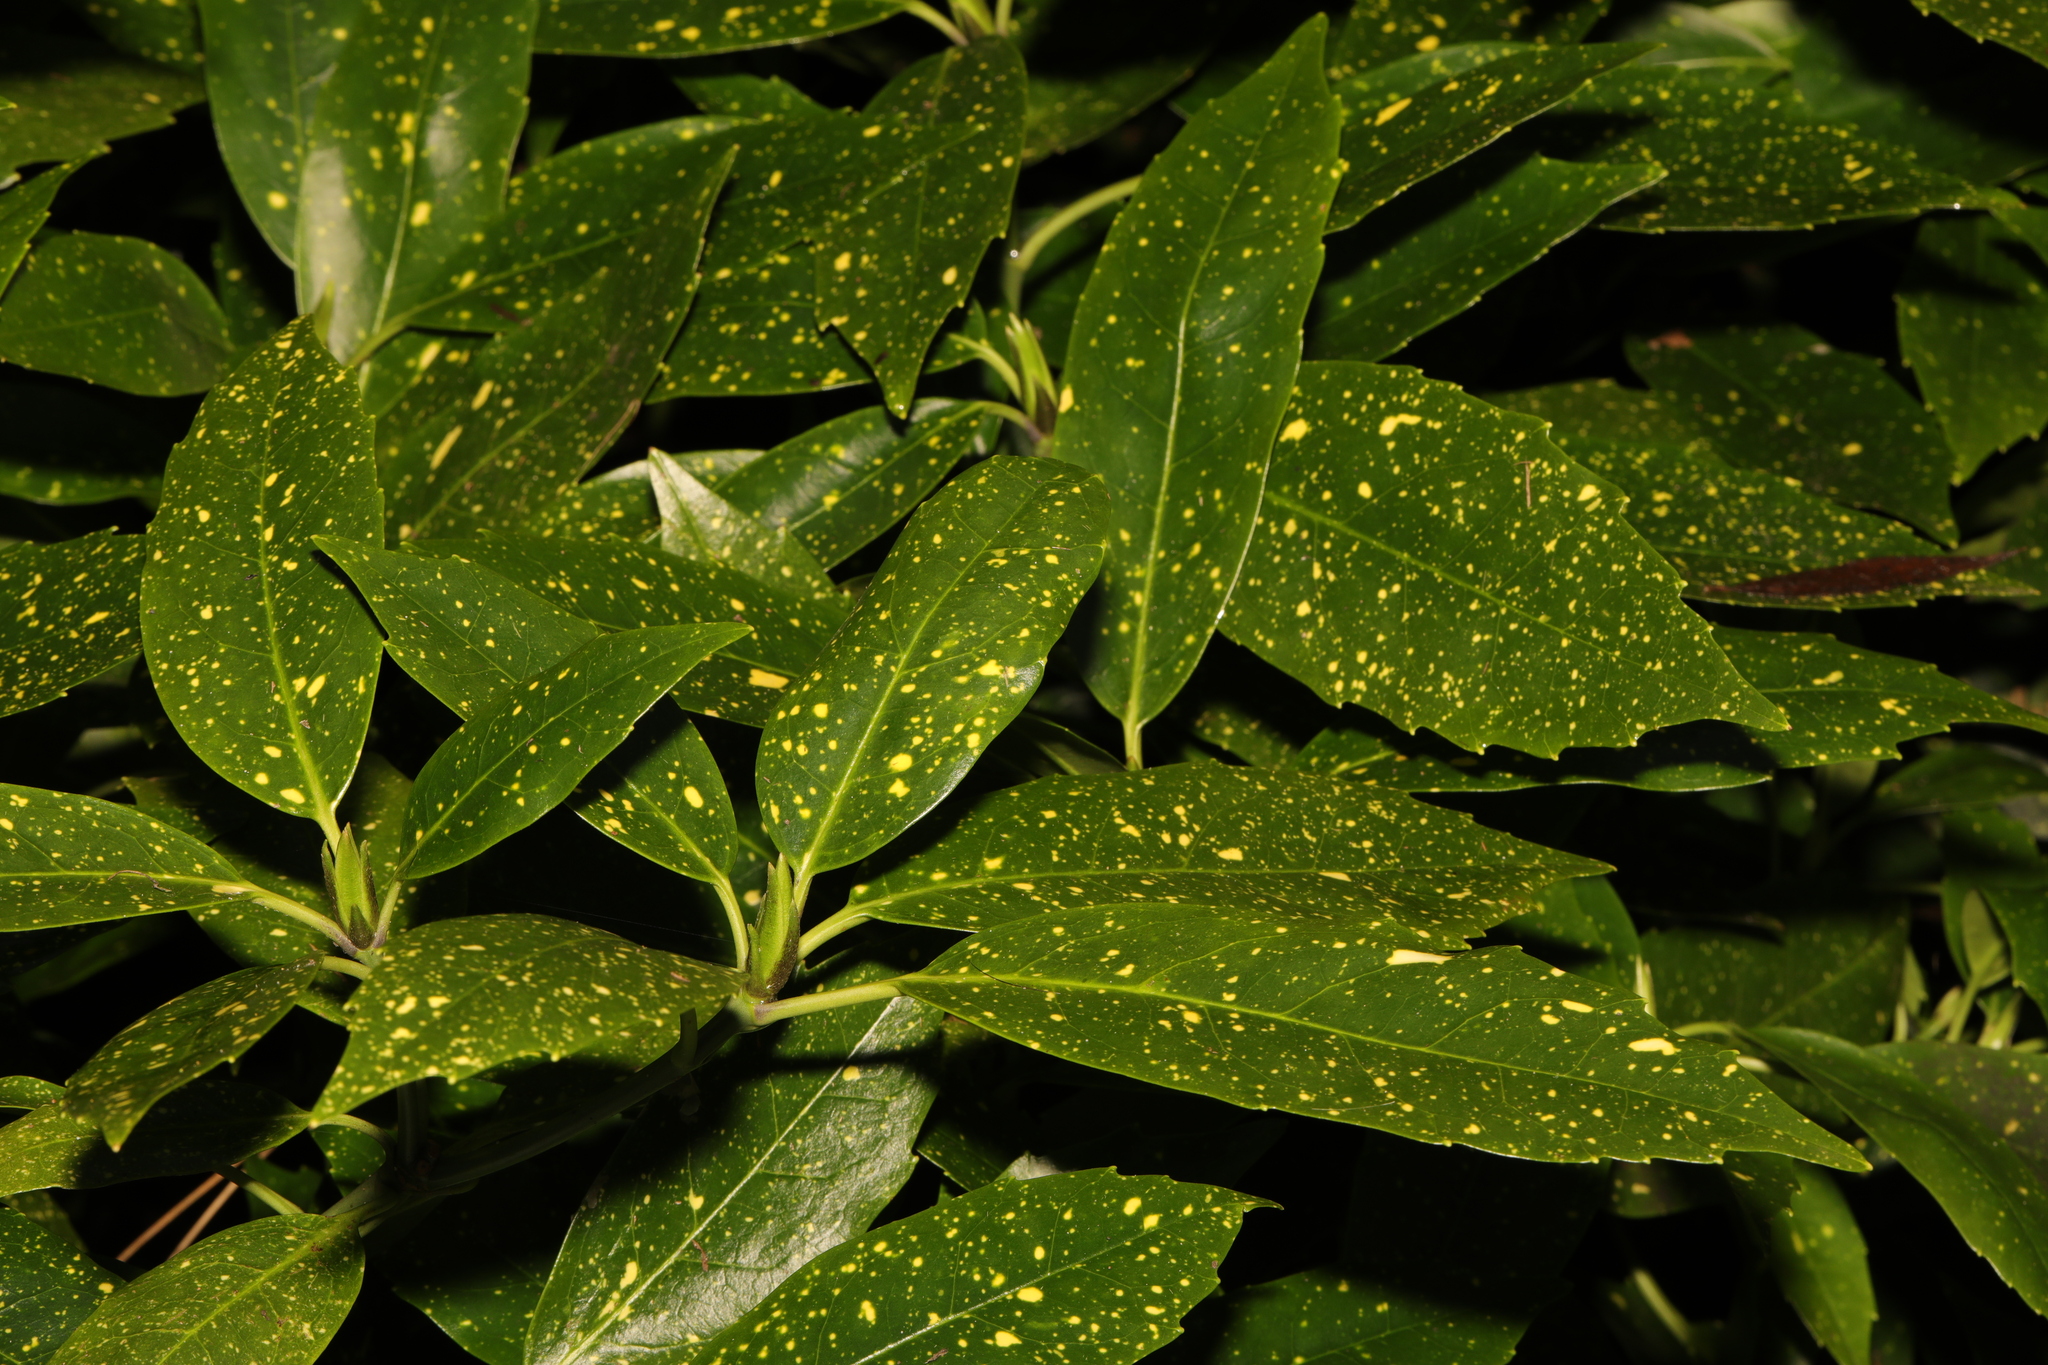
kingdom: Plantae
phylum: Tracheophyta
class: Magnoliopsida
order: Garryales
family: Garryaceae
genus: Aucuba
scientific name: Aucuba japonica
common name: Spotted-laurel
